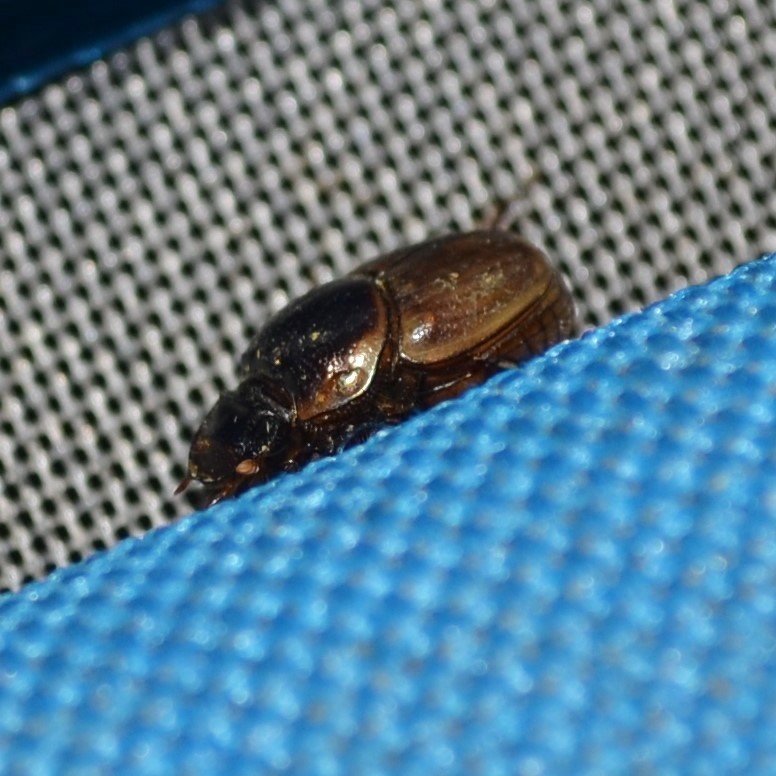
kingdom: Animalia
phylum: Arthropoda
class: Insecta
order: Coleoptera
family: Scarabaeidae
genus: Digitonthophagus
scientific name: Digitonthophagus gazella
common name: Brown dung beetle
